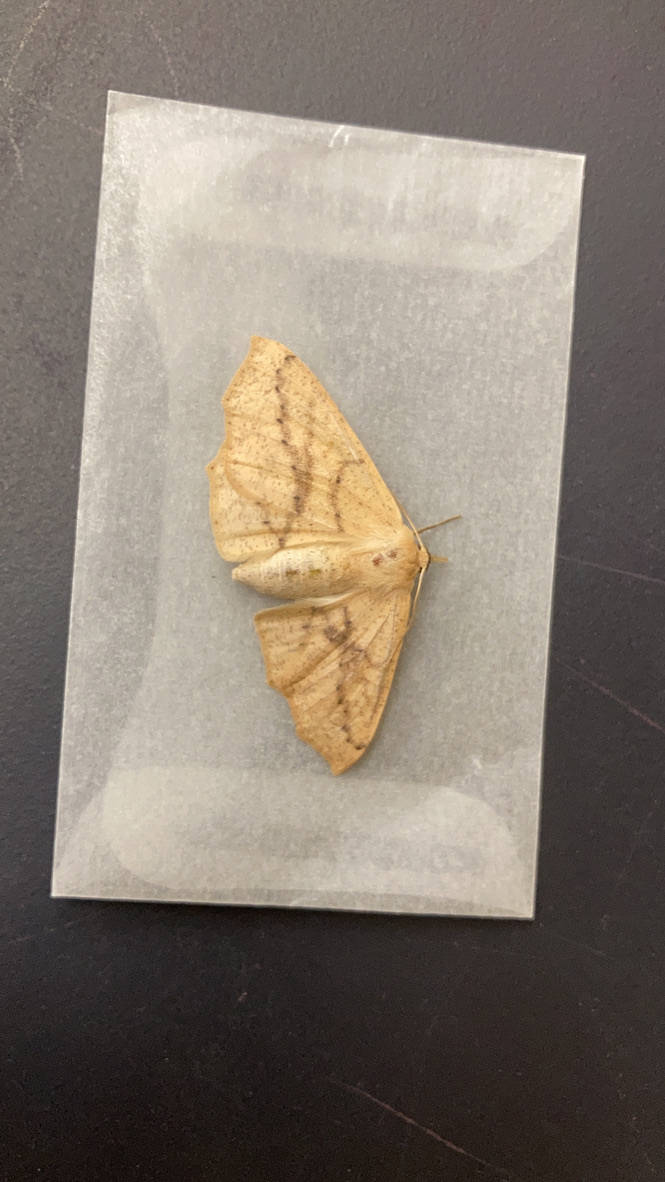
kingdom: Animalia
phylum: Arthropoda
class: Insecta
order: Lepidoptera
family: Geometridae
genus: Sabulodes
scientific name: Sabulodes aegrotata
